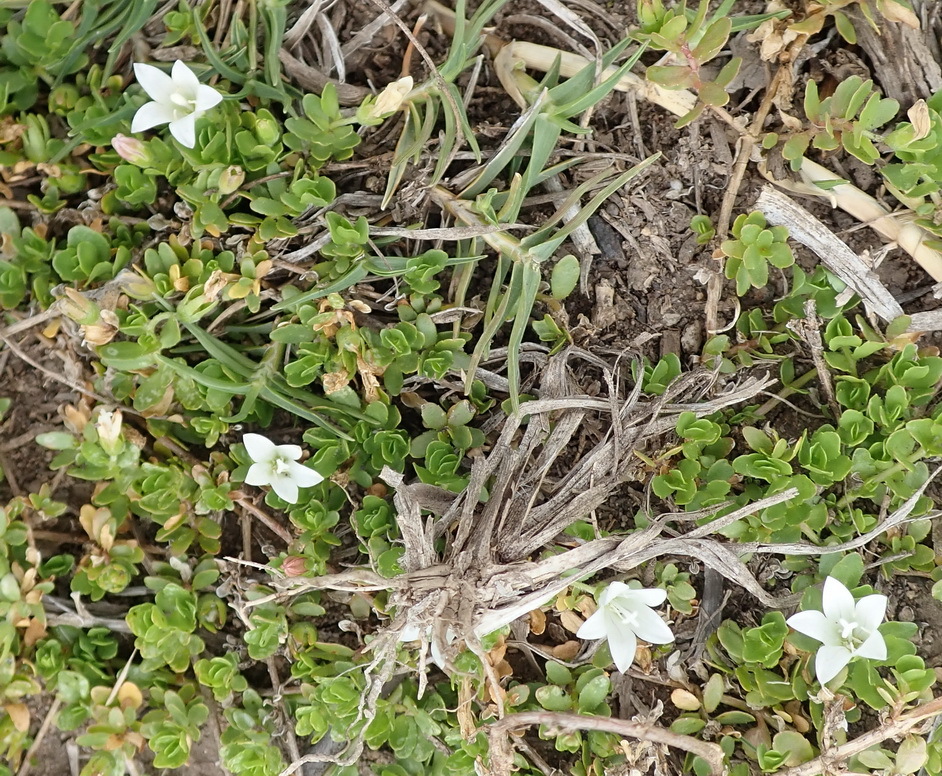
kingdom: Plantae
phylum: Tracheophyta
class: Magnoliopsida
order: Asterales
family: Campanulaceae
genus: Wahlenbergia
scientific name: Wahlenbergia procumbens
